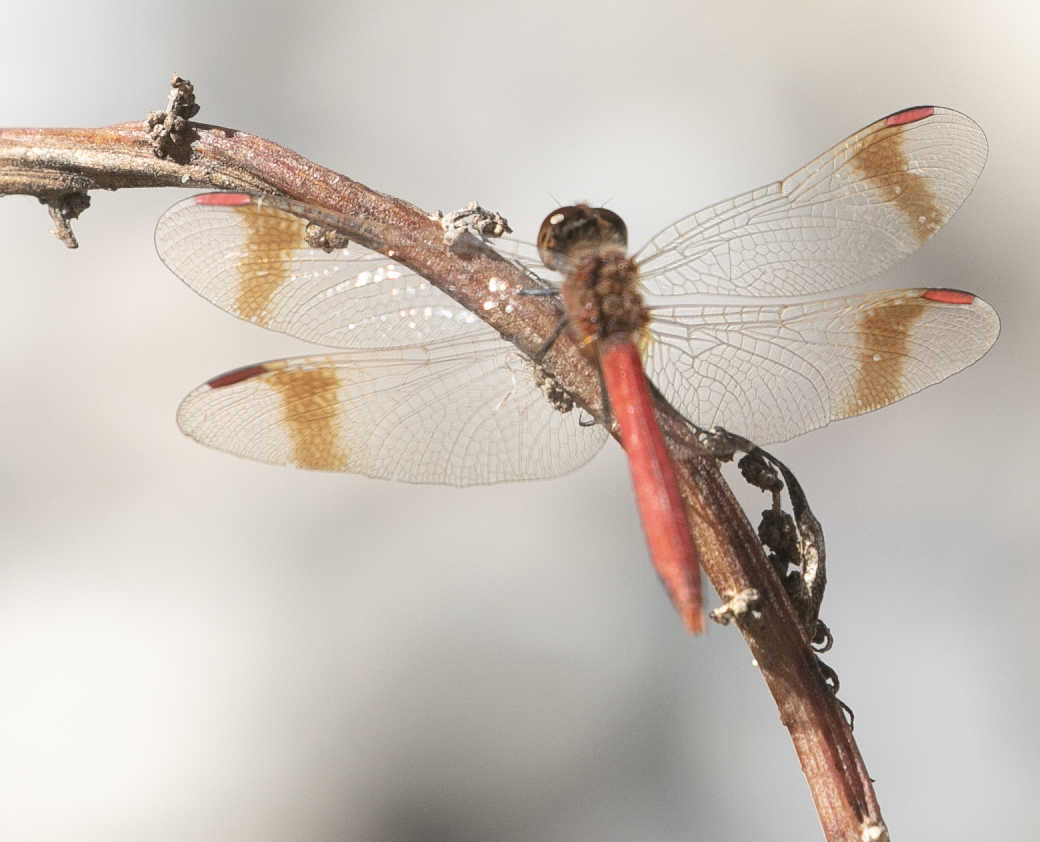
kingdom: Animalia
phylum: Arthropoda
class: Insecta
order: Odonata
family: Libellulidae
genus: Sympetrum
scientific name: Sympetrum pedemontanum
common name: Banded darter
